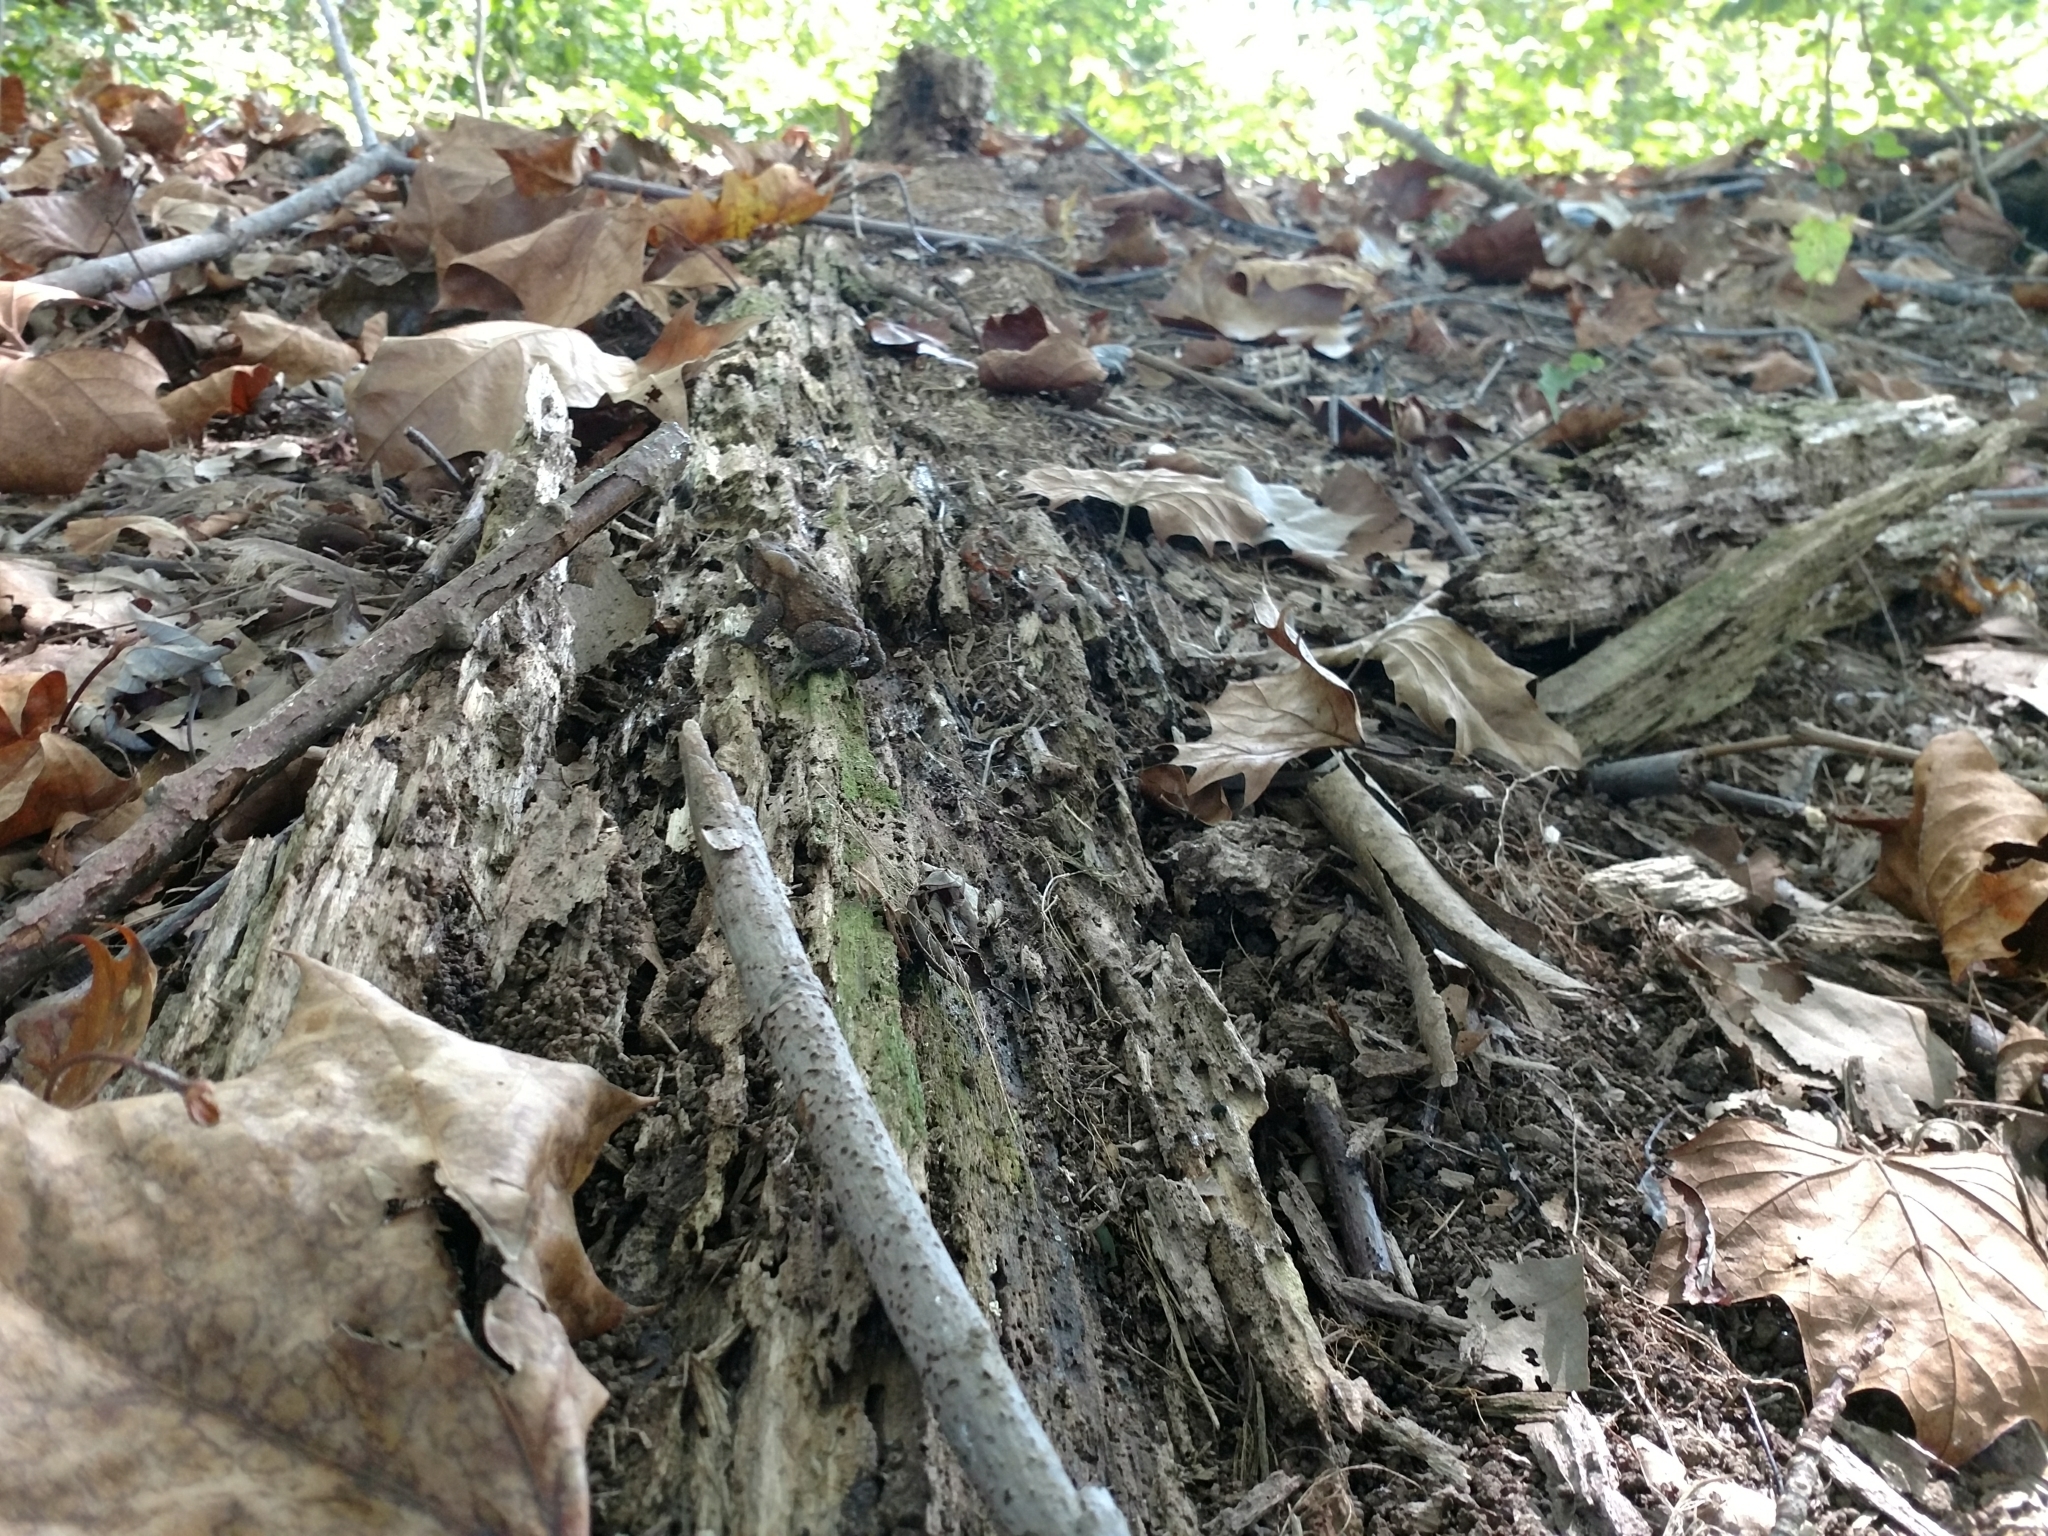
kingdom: Animalia
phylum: Chordata
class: Amphibia
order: Anura
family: Bufonidae
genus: Anaxyrus
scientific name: Anaxyrus americanus
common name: American toad
